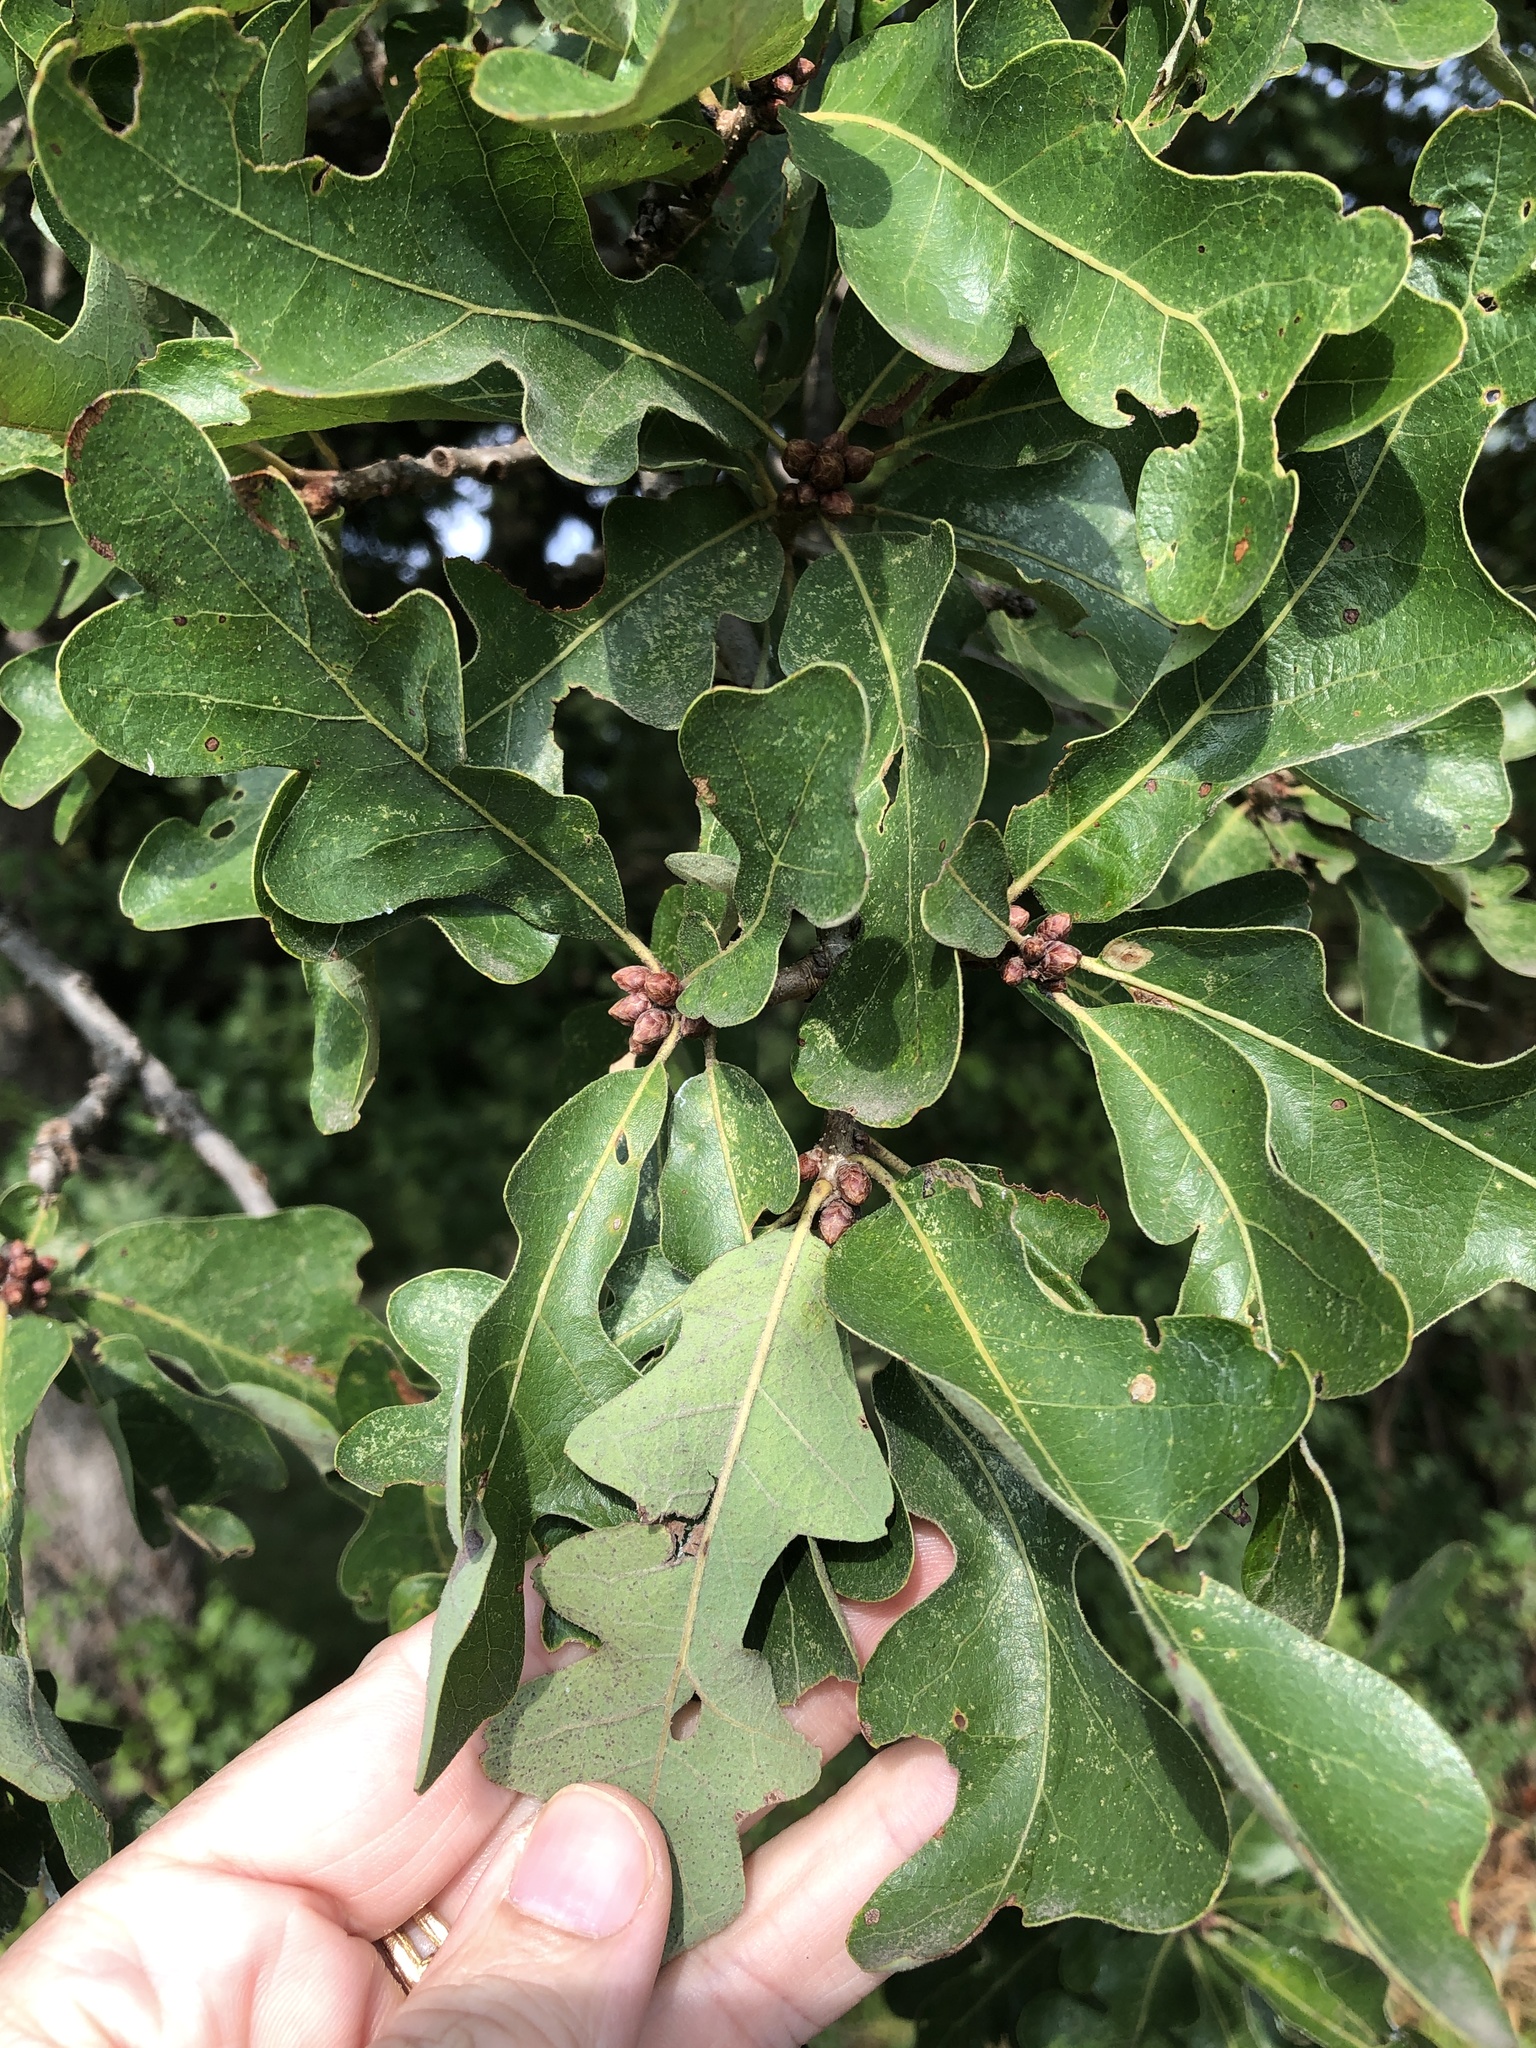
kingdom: Plantae
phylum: Tracheophyta
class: Magnoliopsida
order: Fagales
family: Fagaceae
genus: Quercus
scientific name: Quercus stellata
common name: Post oak
